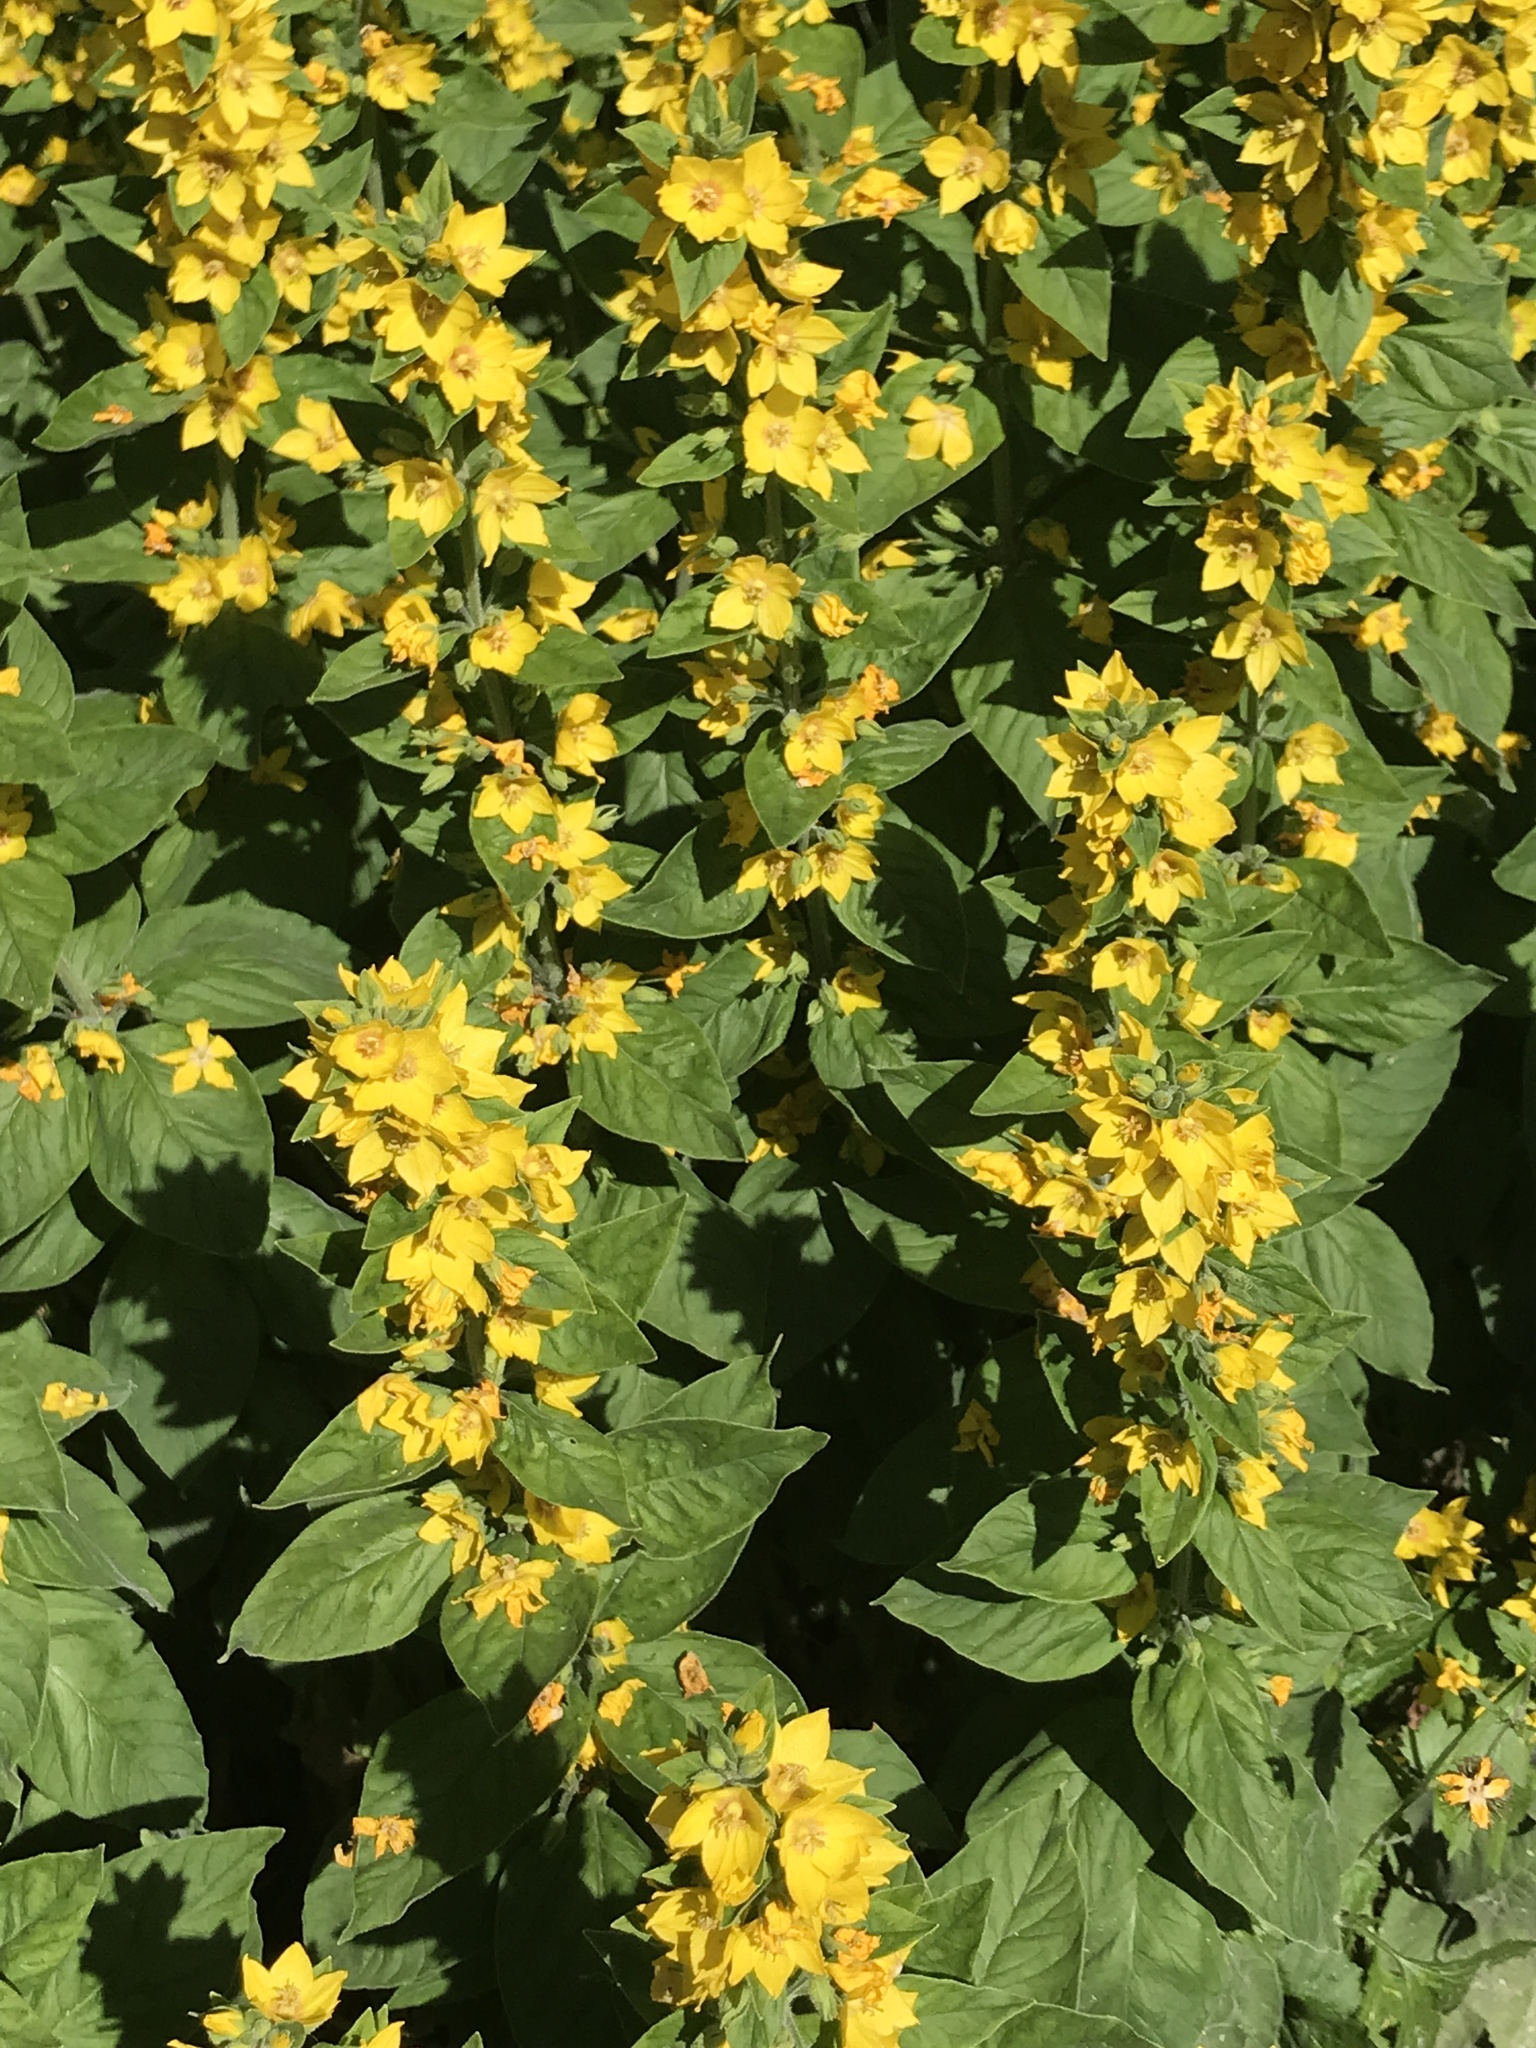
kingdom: Plantae
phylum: Tracheophyta
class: Magnoliopsida
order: Ericales
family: Primulaceae
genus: Lysimachia
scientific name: Lysimachia punctata
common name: Dotted loosestrife
